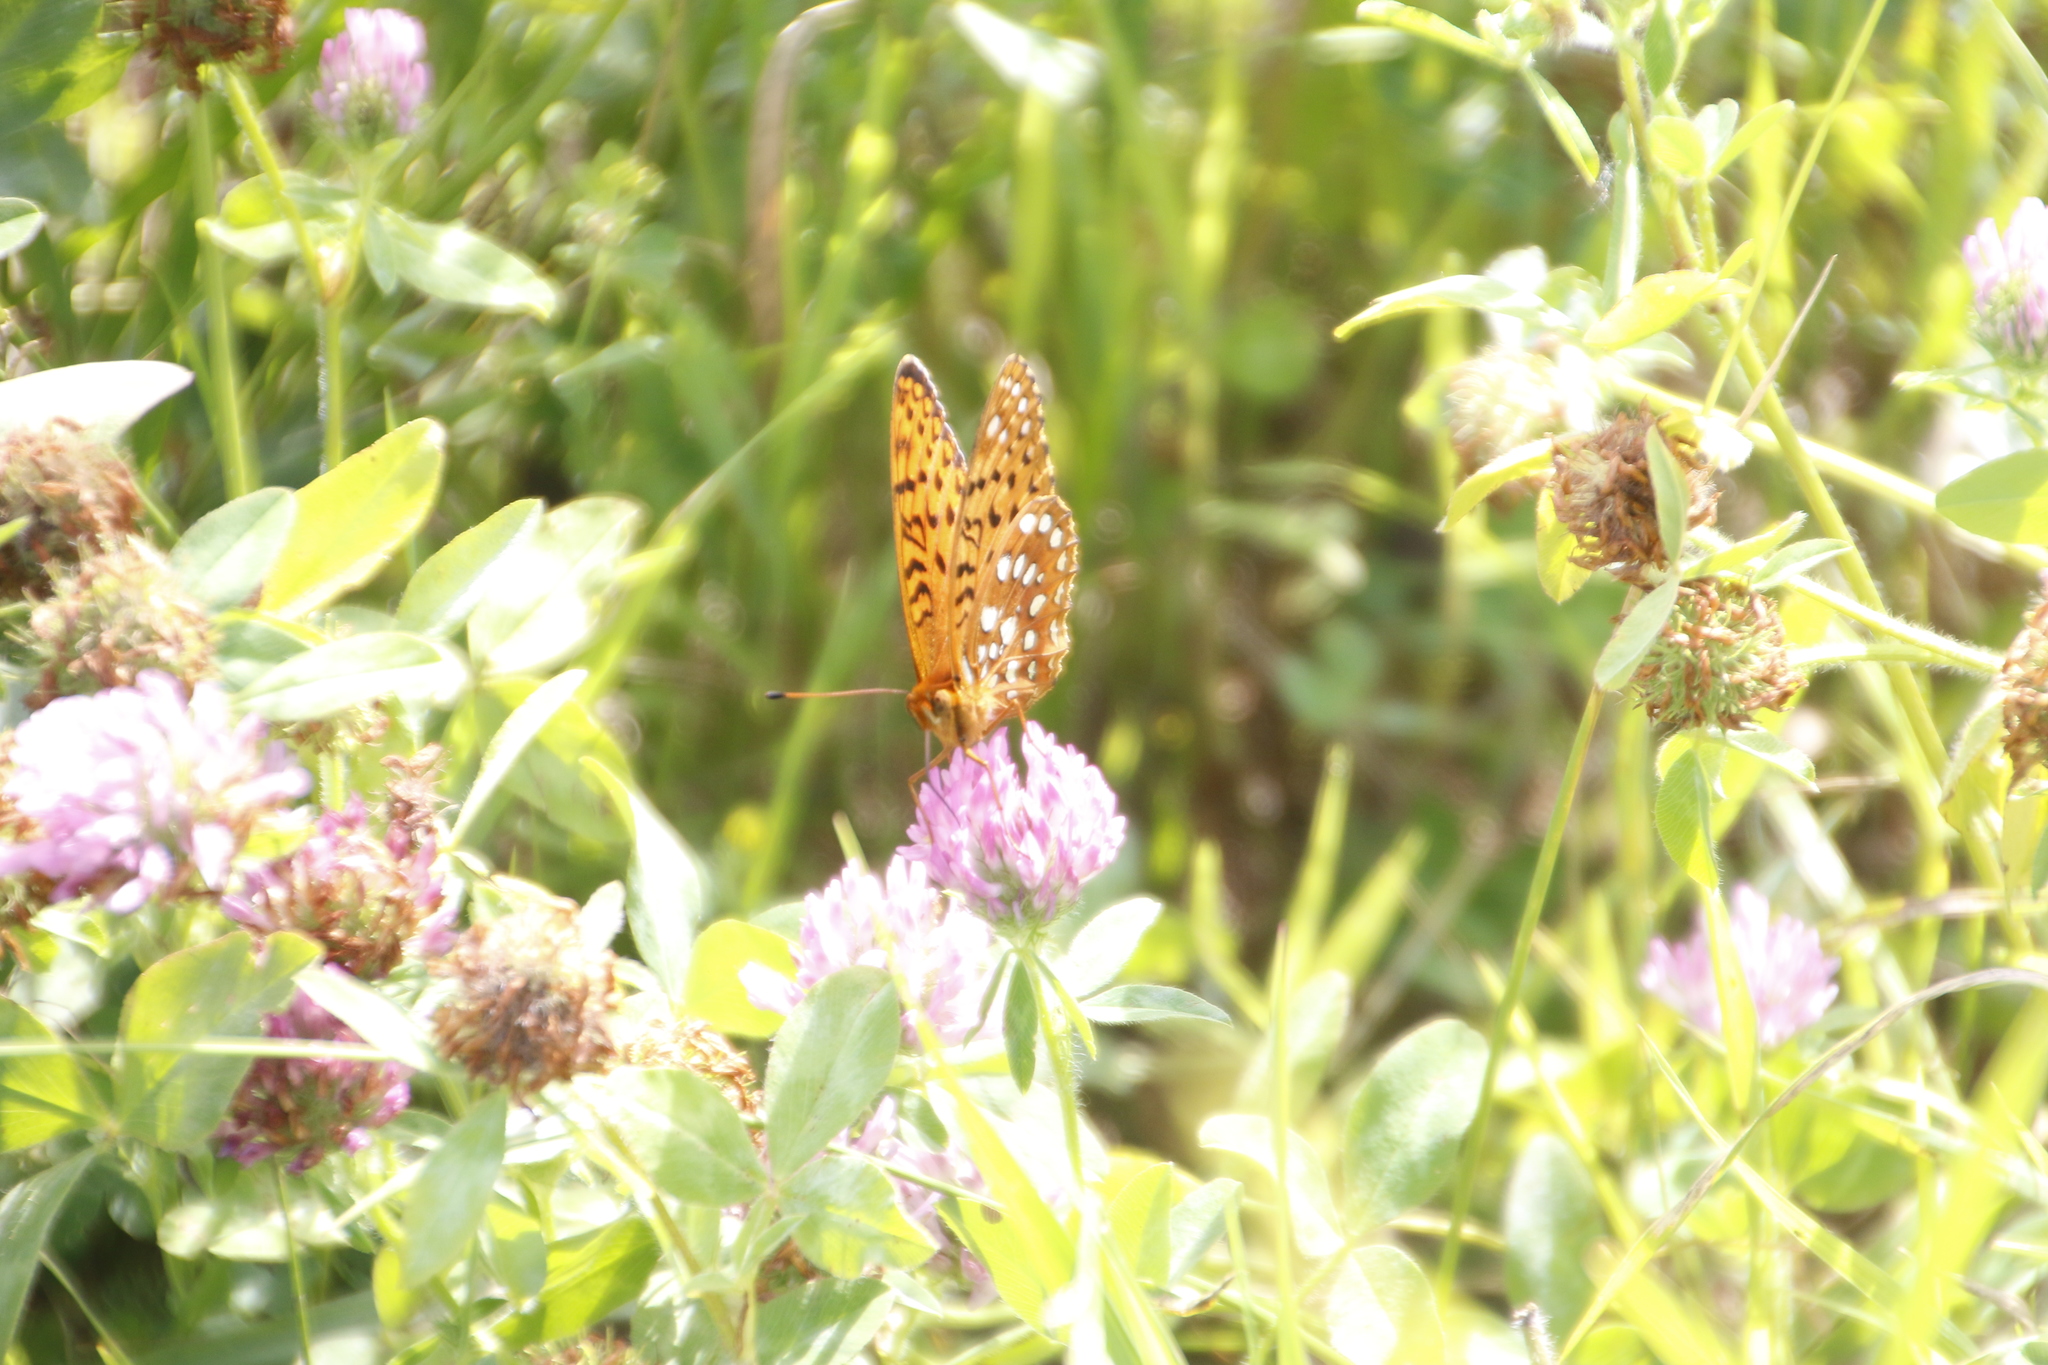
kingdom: Animalia
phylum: Arthropoda
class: Insecta
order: Lepidoptera
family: Nymphalidae
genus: Speyeria
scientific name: Speyeria aphrodite
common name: Aphrodite friitllary
